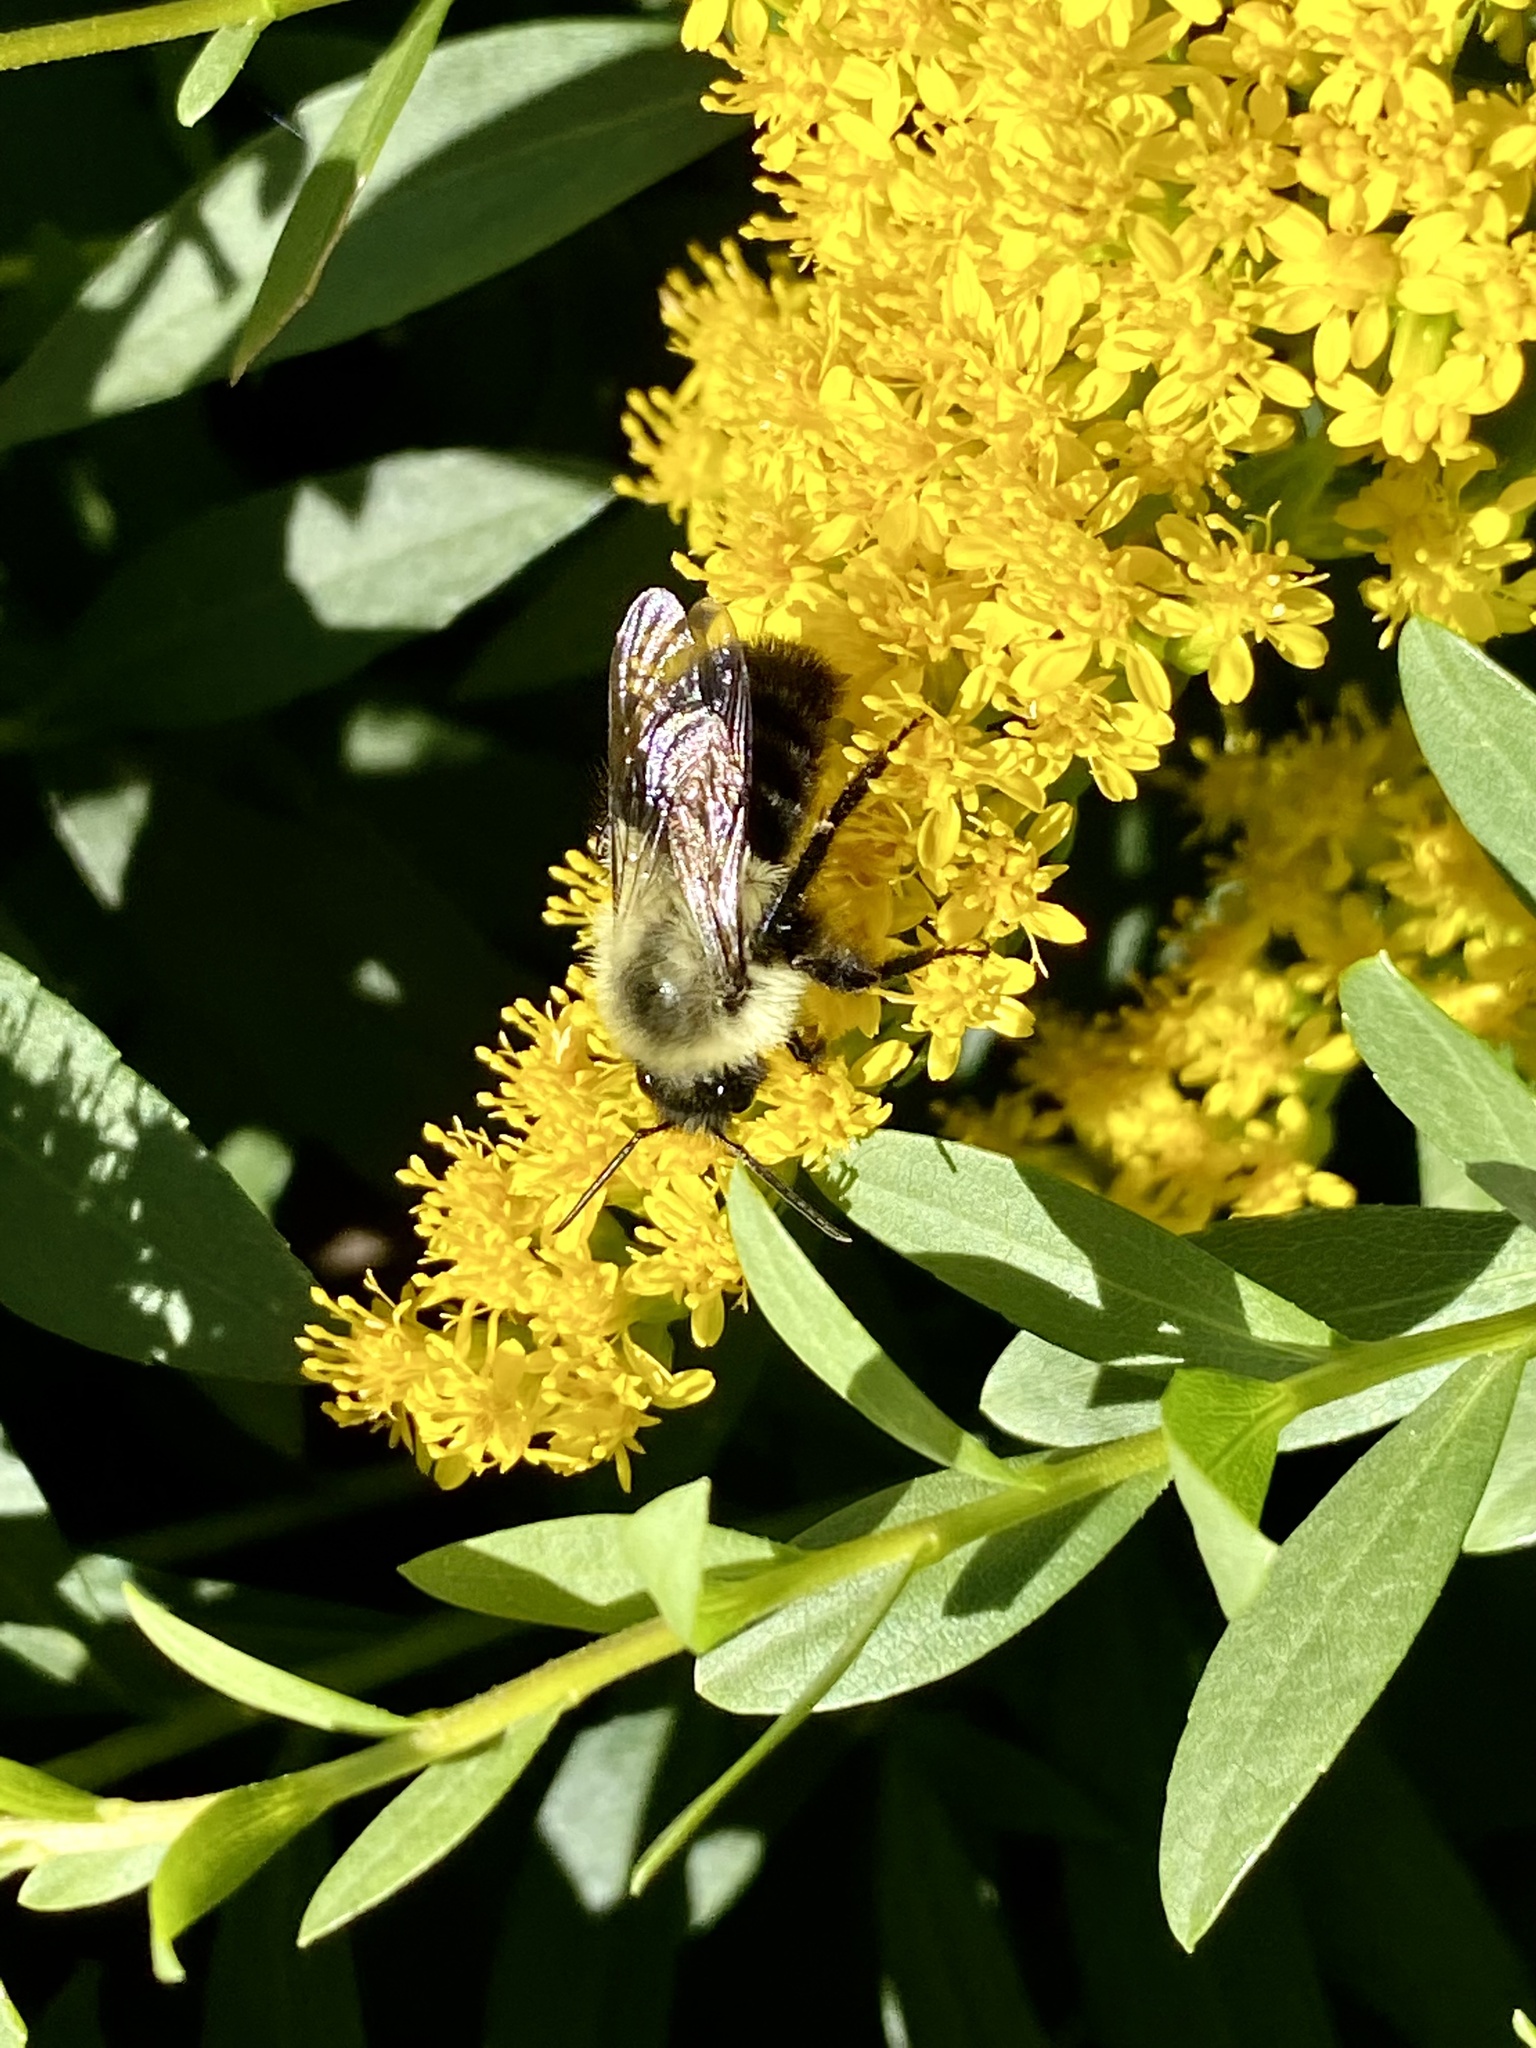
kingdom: Animalia
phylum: Arthropoda
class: Insecta
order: Hymenoptera
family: Apidae
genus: Bombus
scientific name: Bombus impatiens
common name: Common eastern bumble bee
